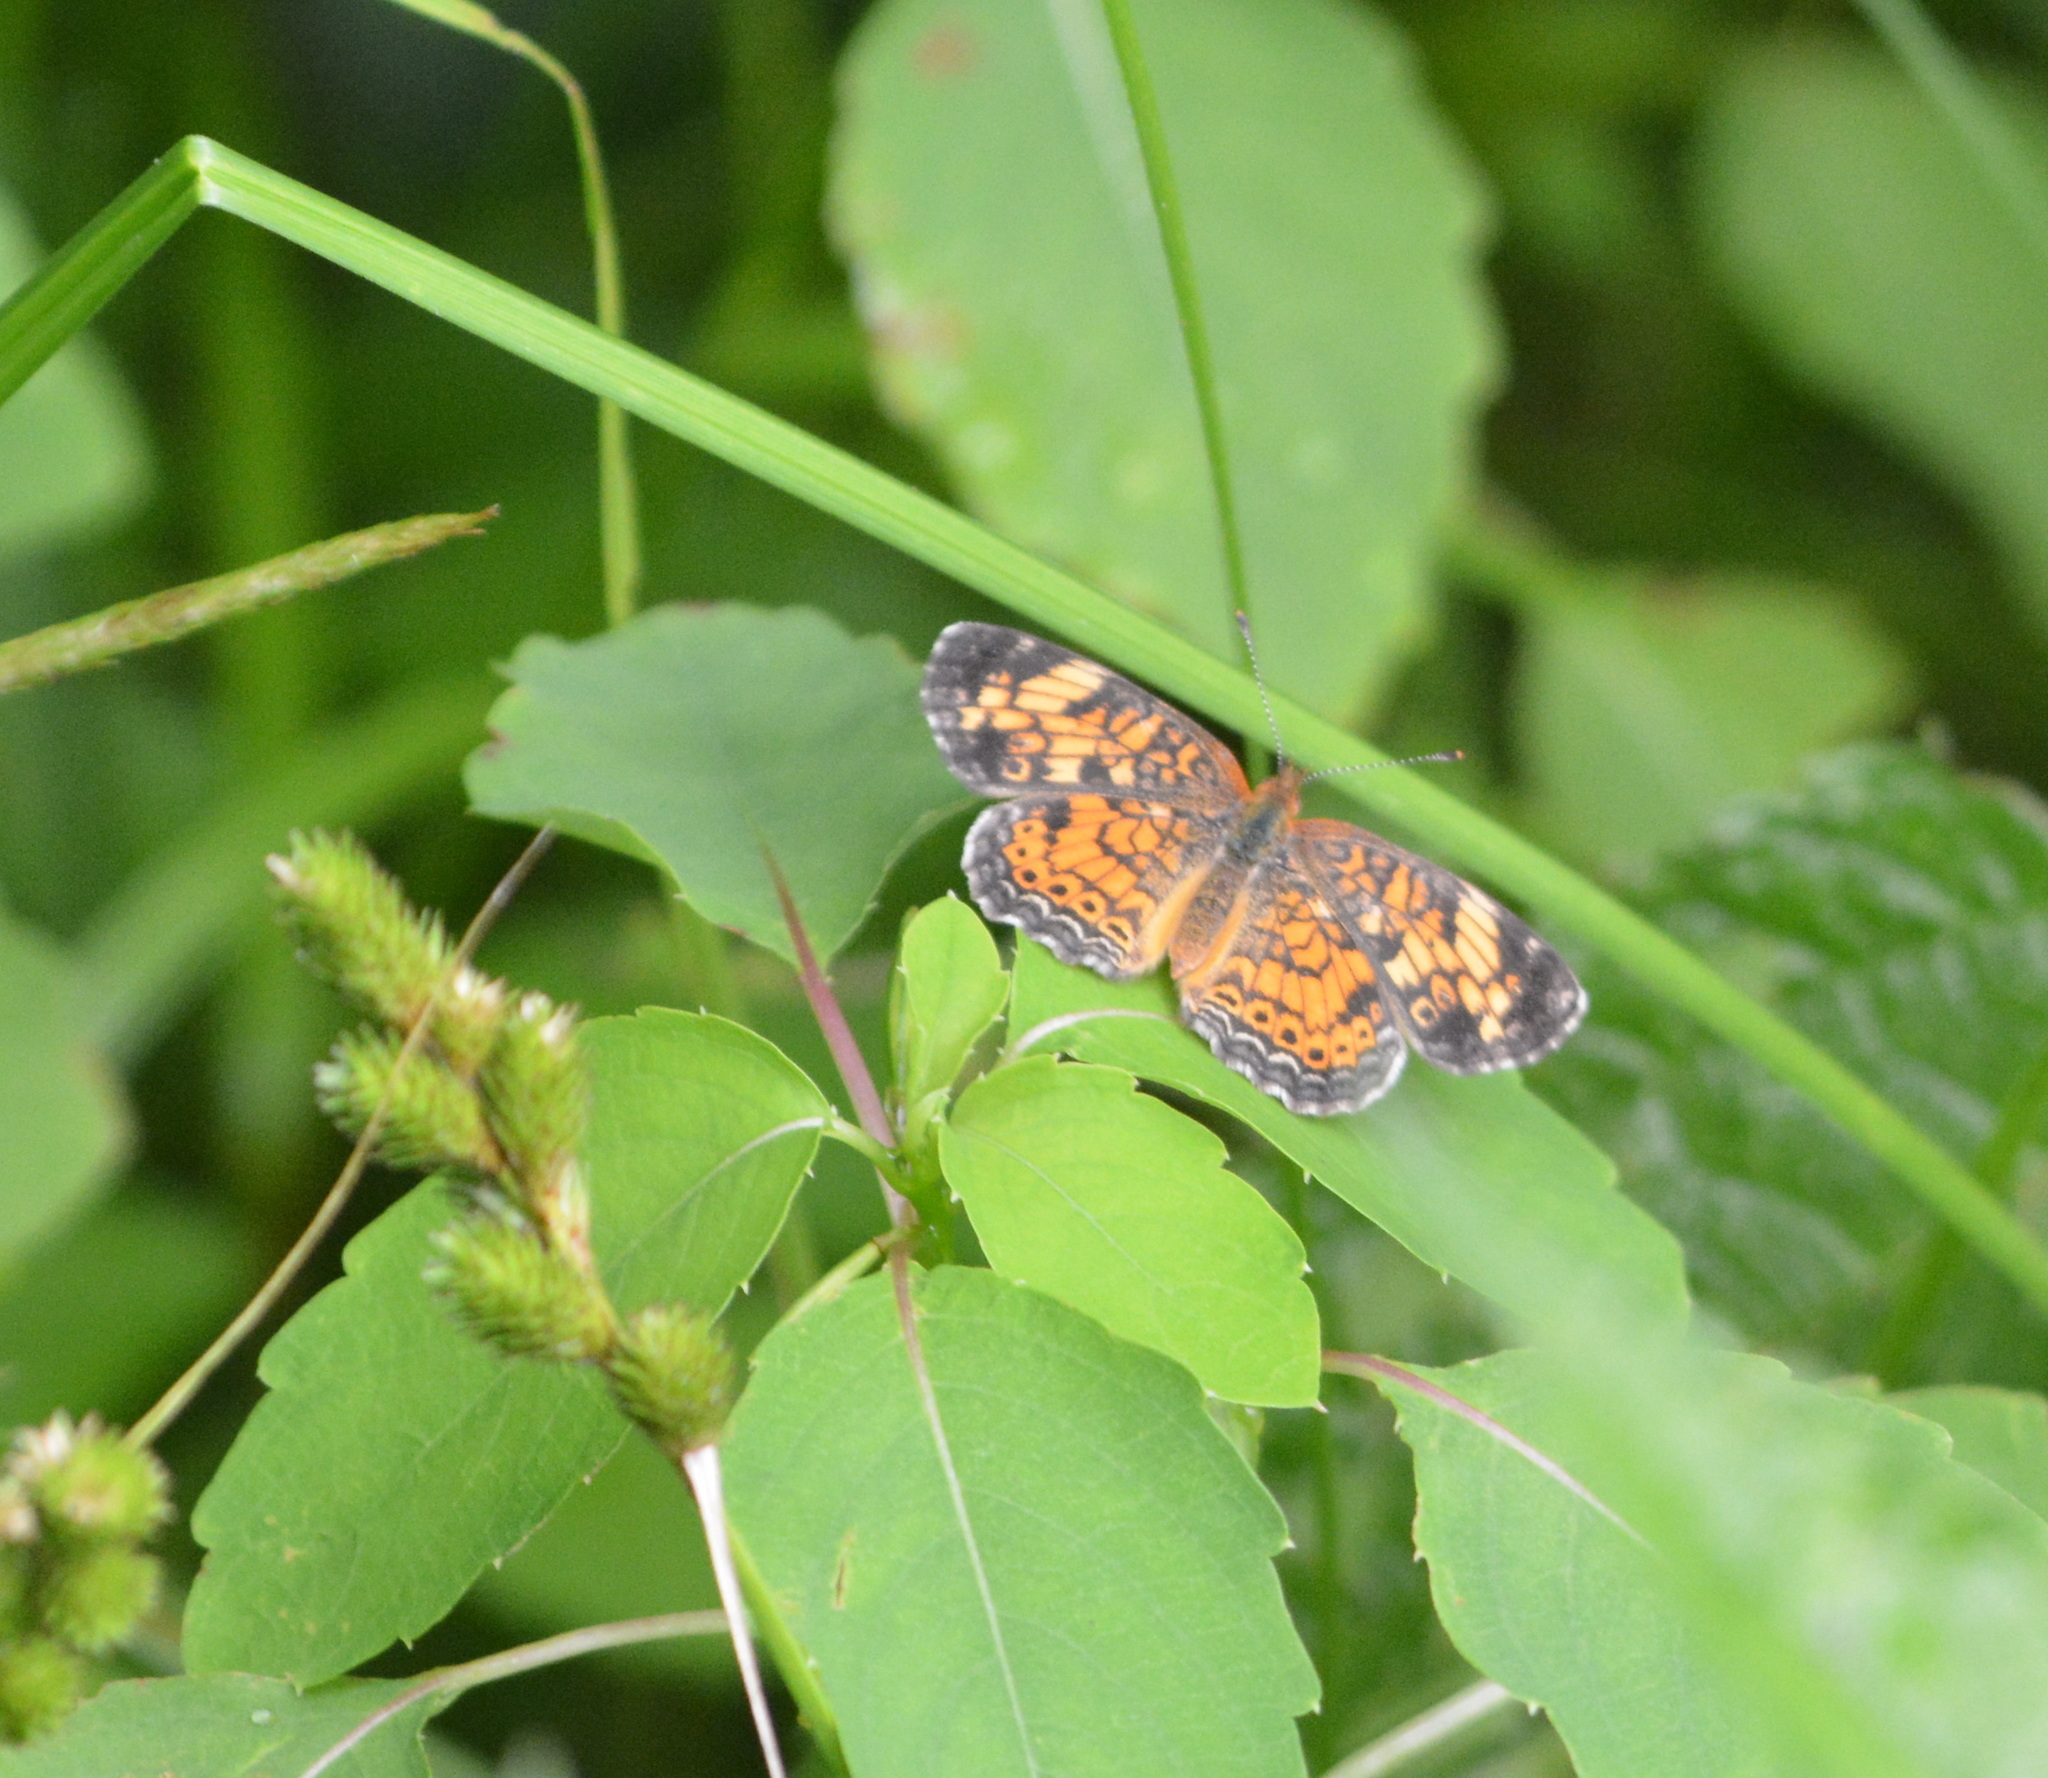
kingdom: Animalia
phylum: Arthropoda
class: Insecta
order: Lepidoptera
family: Nymphalidae
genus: Phyciodes
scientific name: Phyciodes tharos
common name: Pearl crescent
